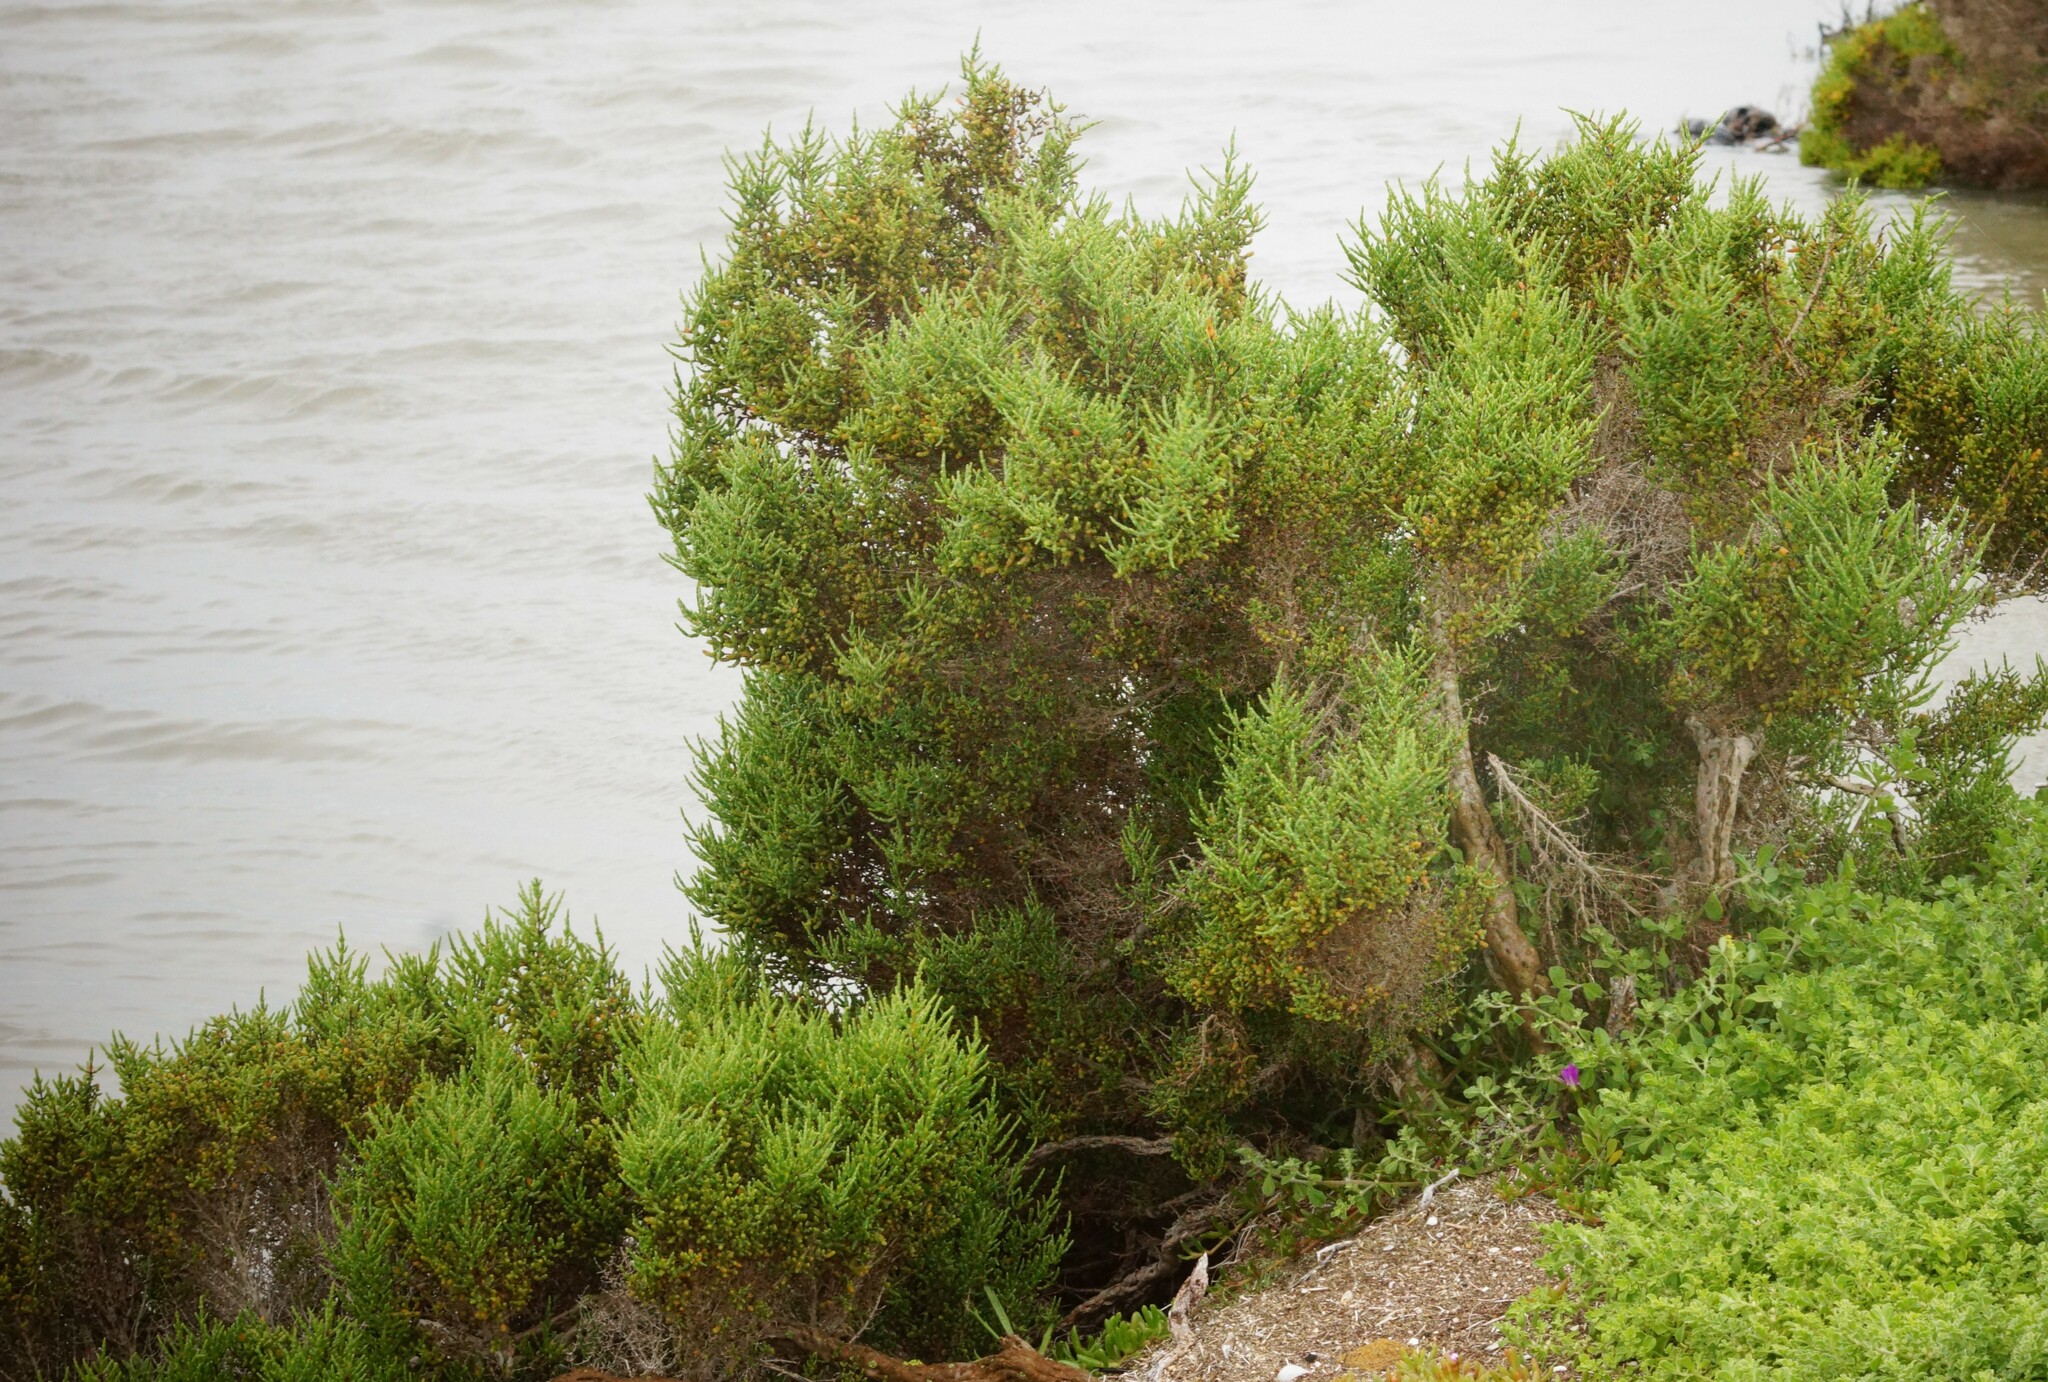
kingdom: Plantae
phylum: Tracheophyta
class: Magnoliopsida
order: Caryophyllales
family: Amaranthaceae
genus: Tecticornia
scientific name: Tecticornia arbuscula
